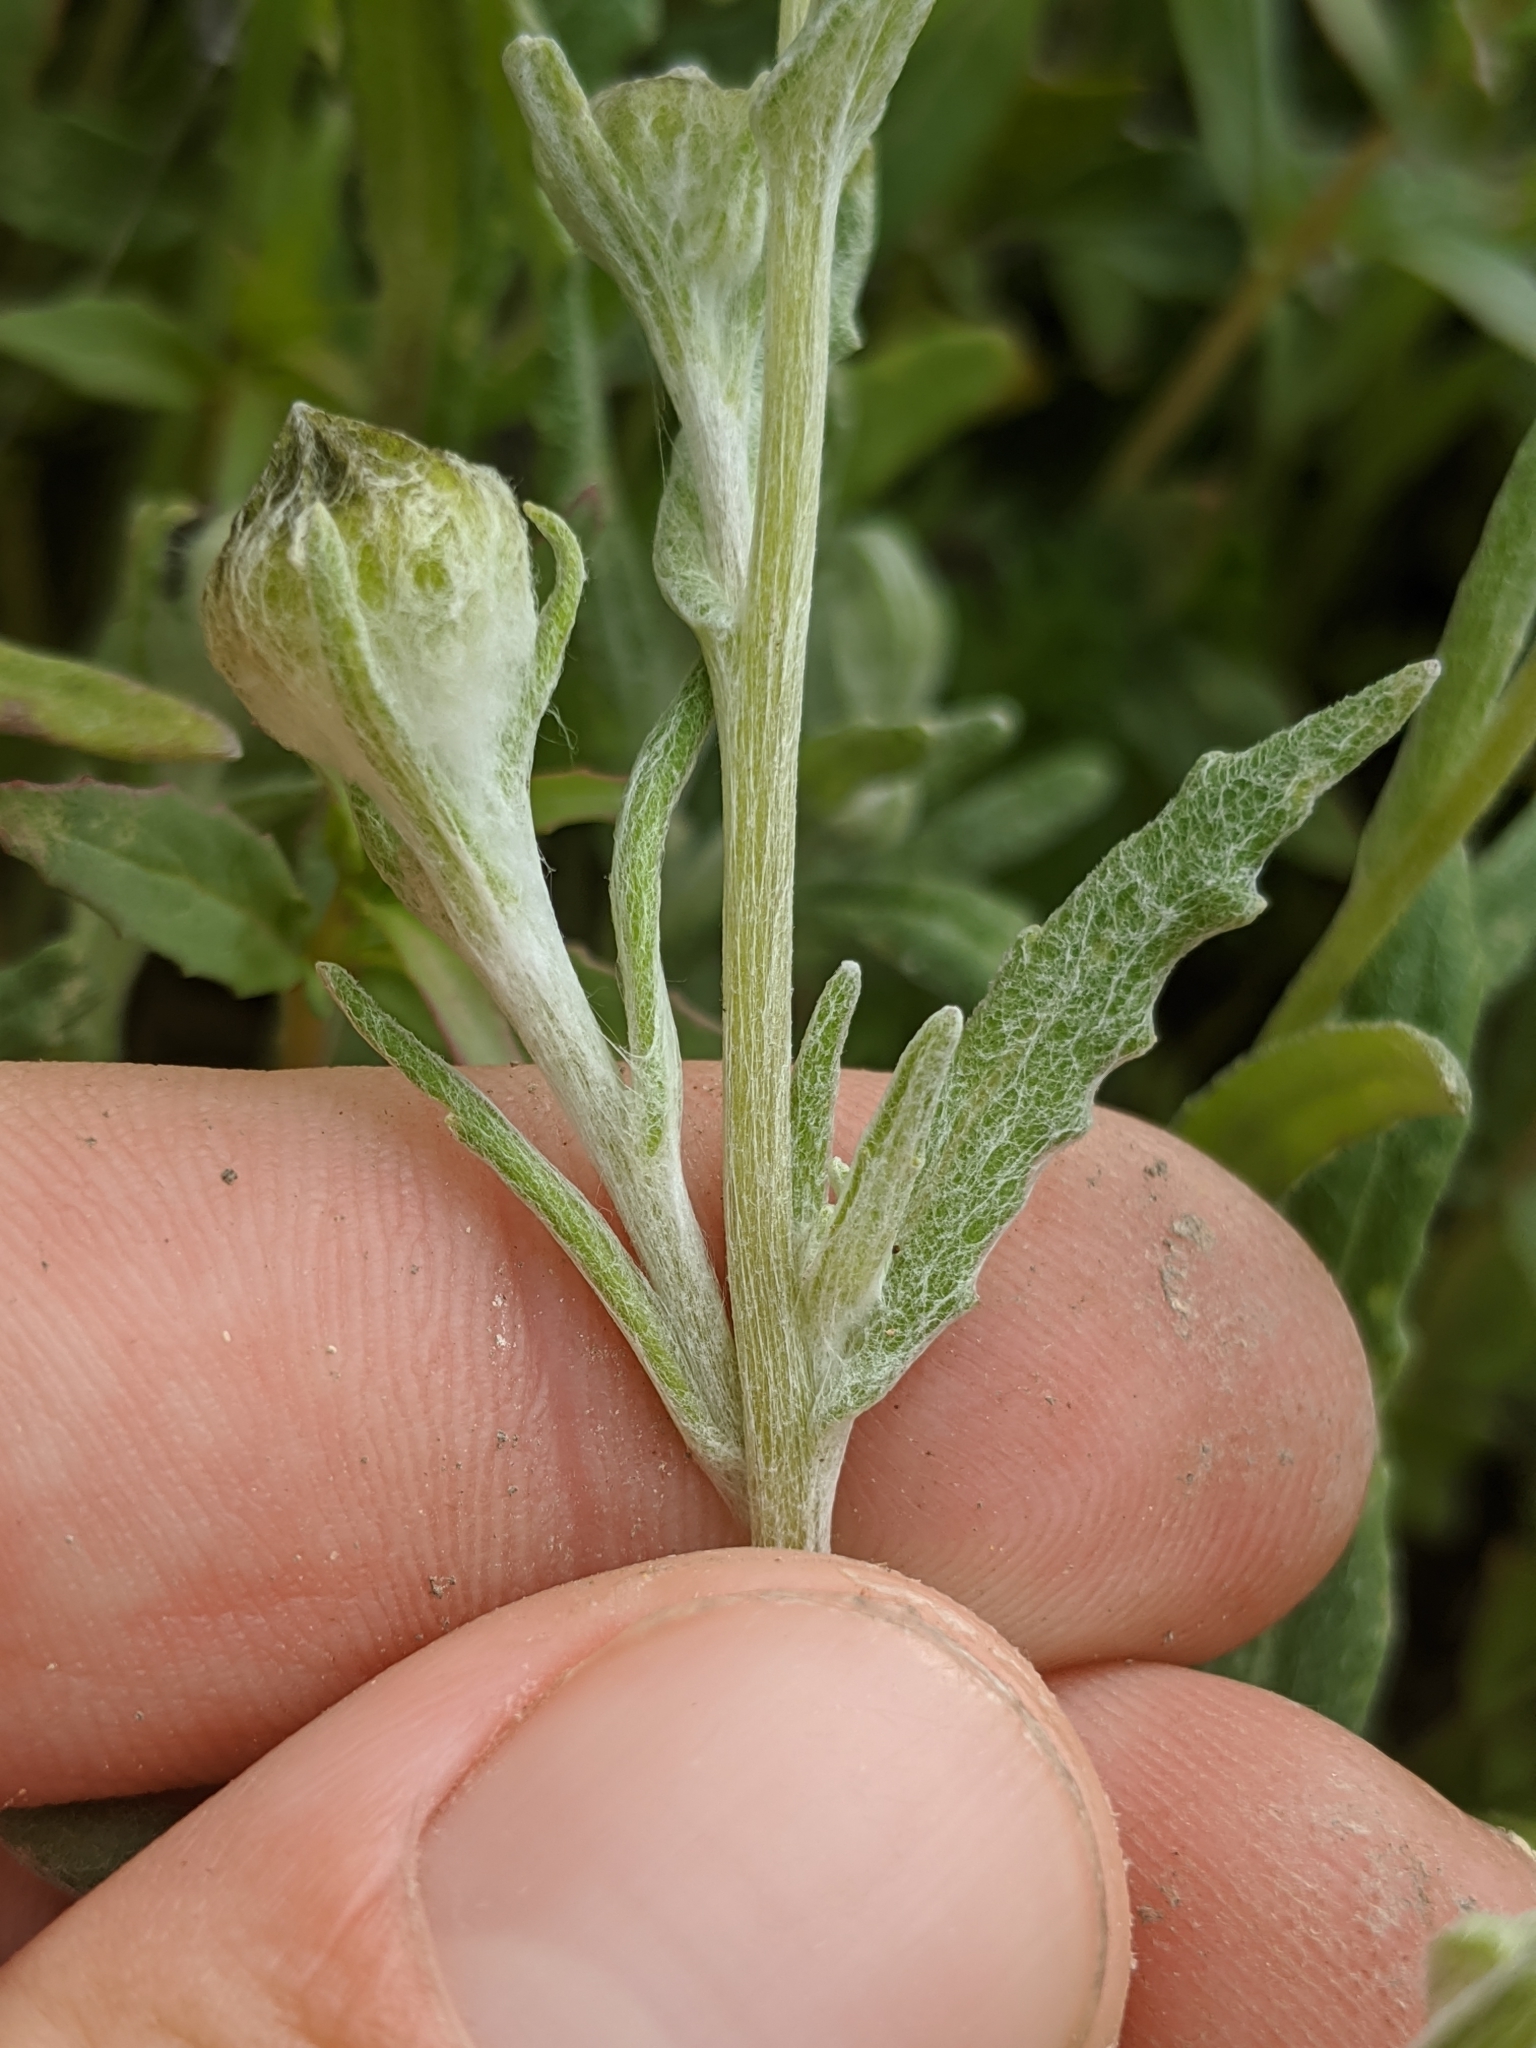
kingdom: Plantae
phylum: Tracheophyta
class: Magnoliopsida
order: Asterales
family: Asteraceae
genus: Monolopia
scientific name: Monolopia lanceolata
